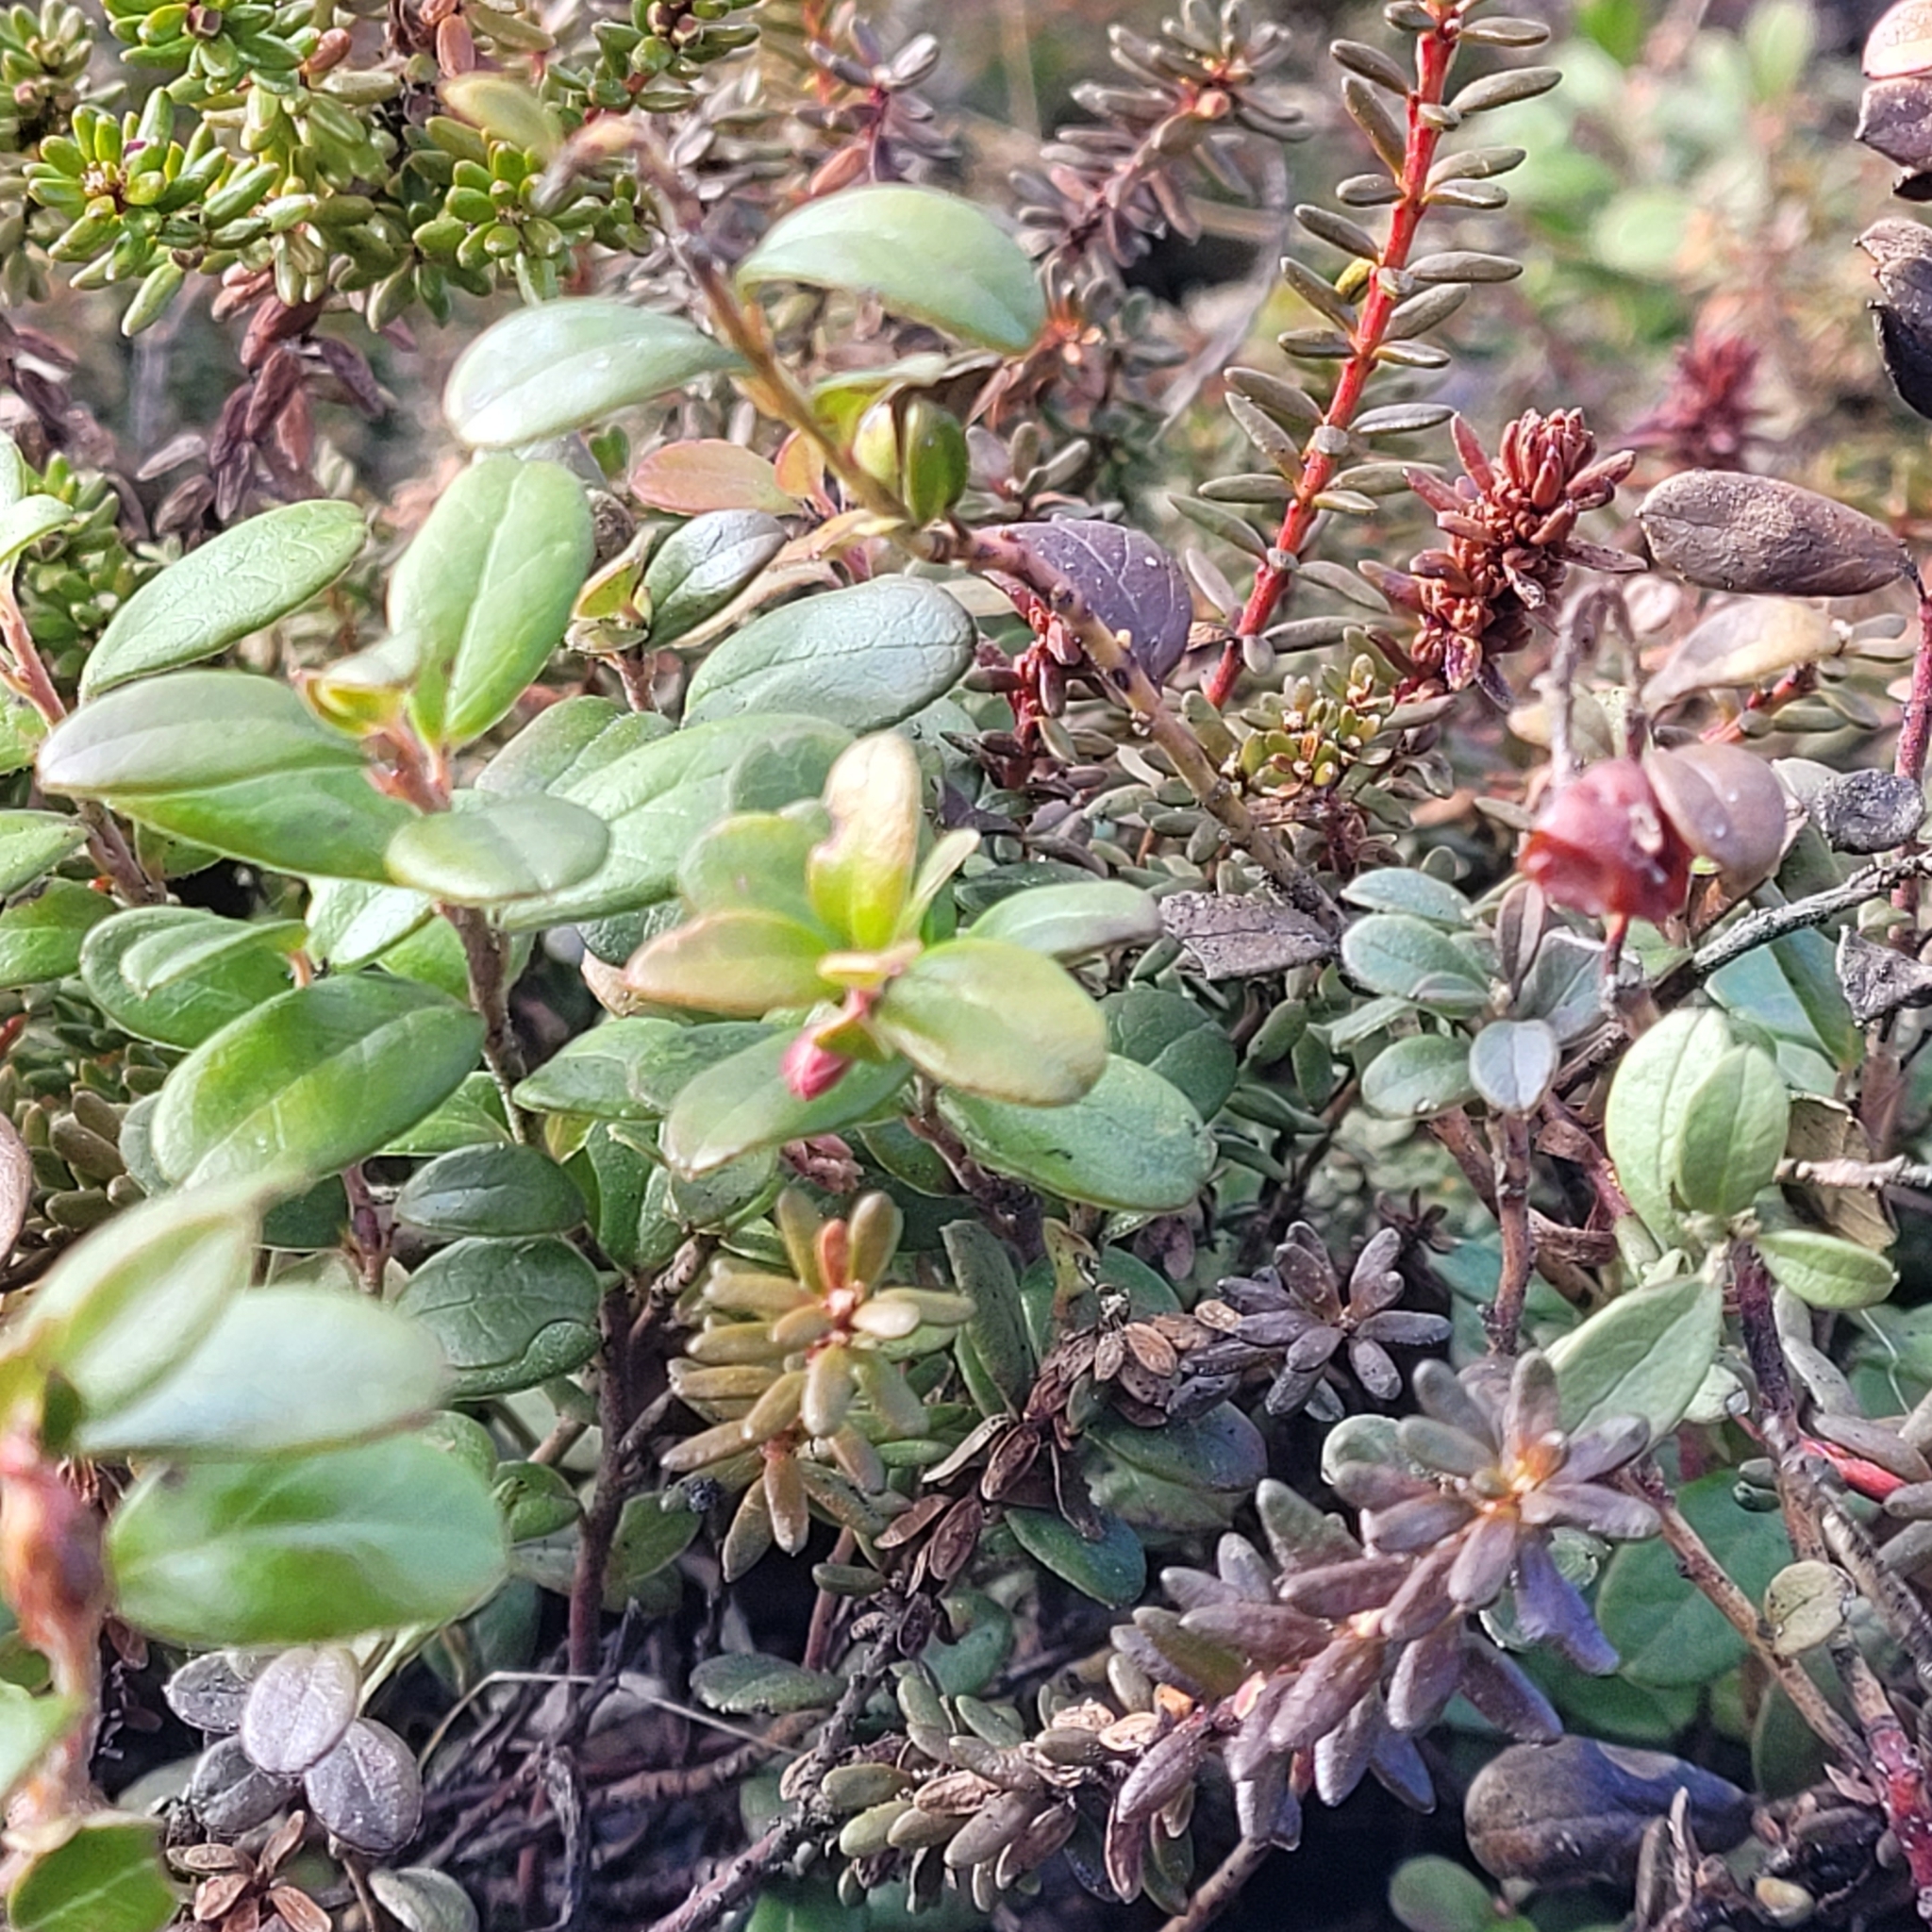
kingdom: Plantae
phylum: Tracheophyta
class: Magnoliopsida
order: Ericales
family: Ericaceae
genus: Vaccinium
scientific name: Vaccinium vitis-idaea
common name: Cowberry
